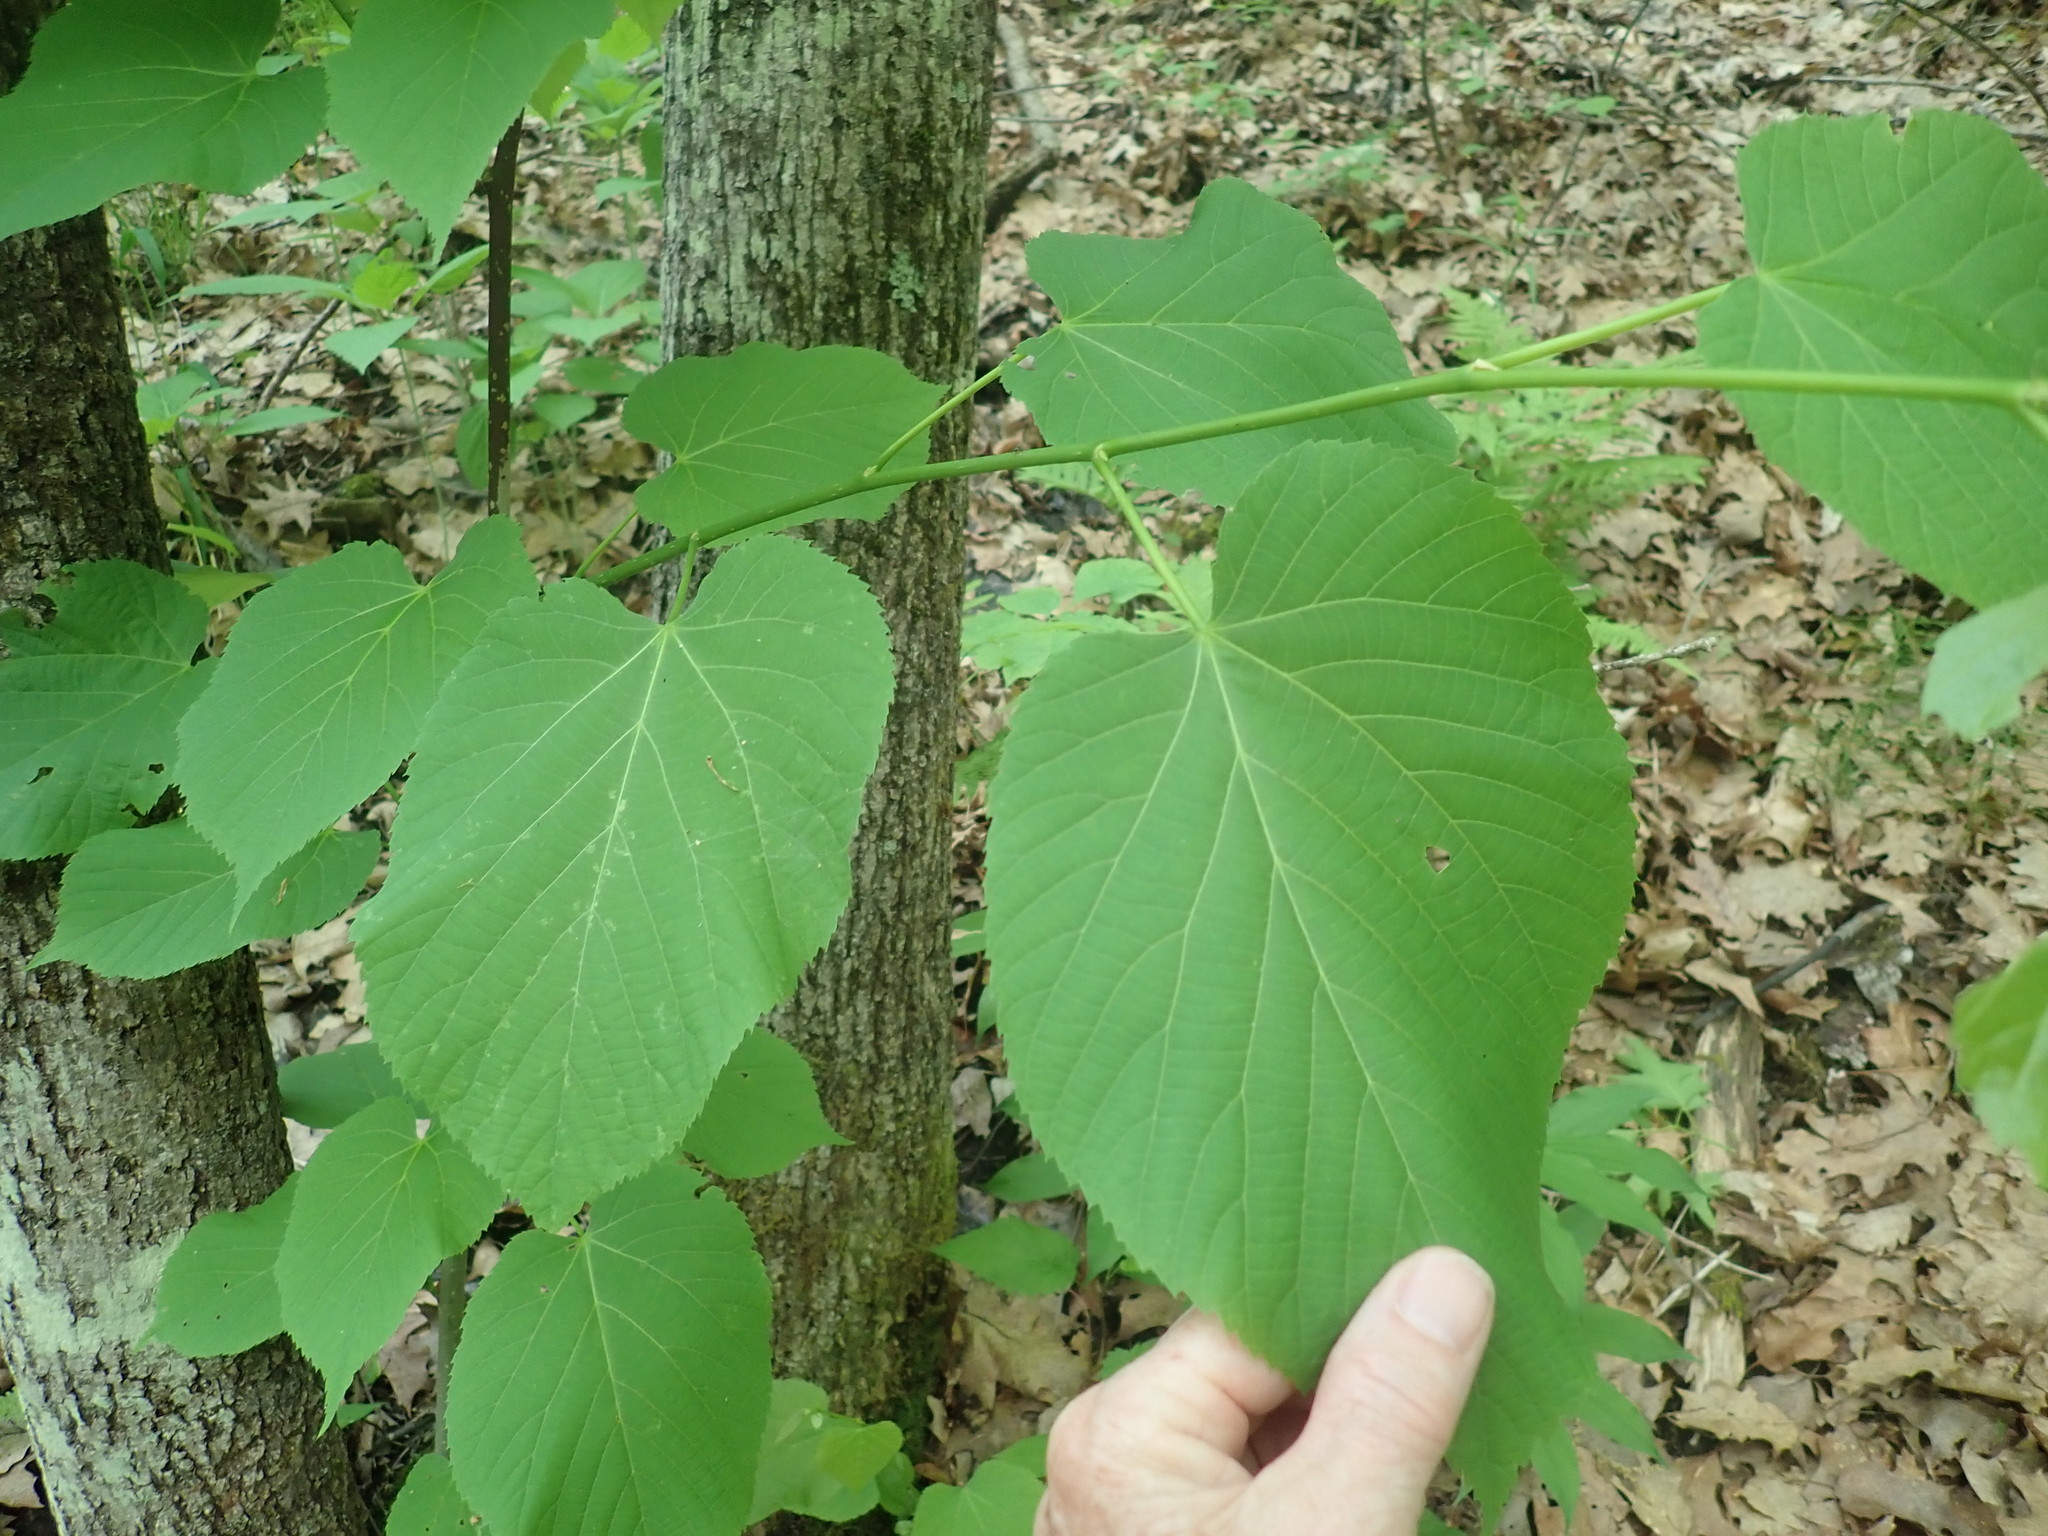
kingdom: Plantae
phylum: Tracheophyta
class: Magnoliopsida
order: Malvales
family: Malvaceae
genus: Tilia
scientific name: Tilia americana
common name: Basswood
